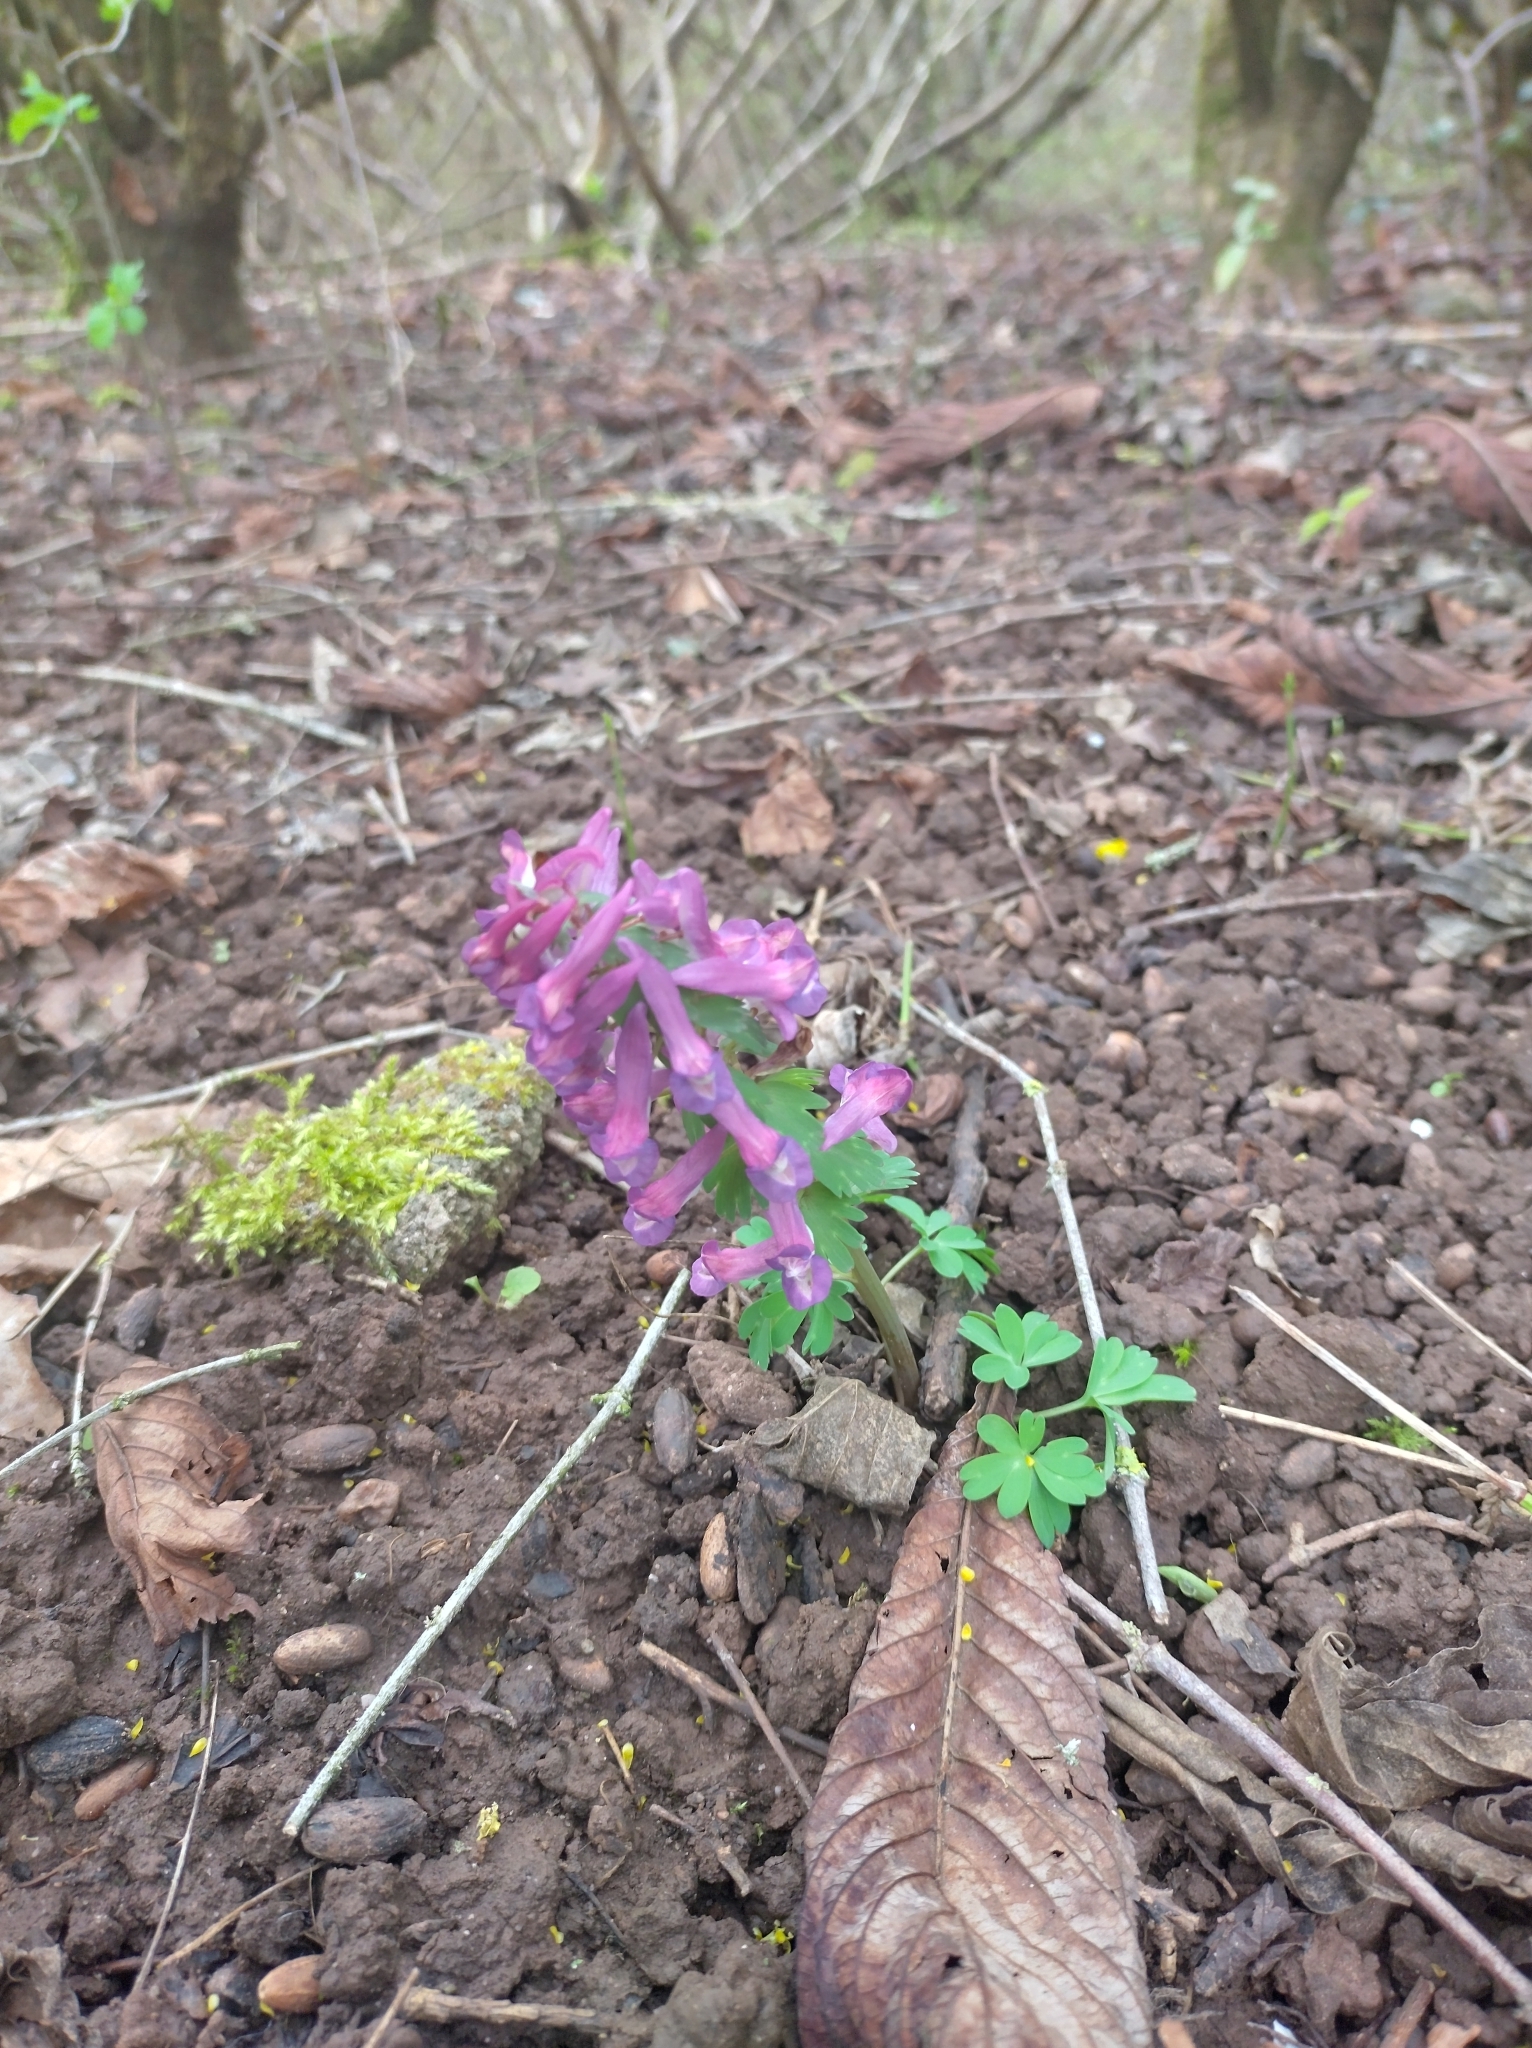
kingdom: Plantae
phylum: Tracheophyta
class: Magnoliopsida
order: Ranunculales
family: Papaveraceae
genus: Corydalis
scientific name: Corydalis solida
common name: Bird-in-a-bush
